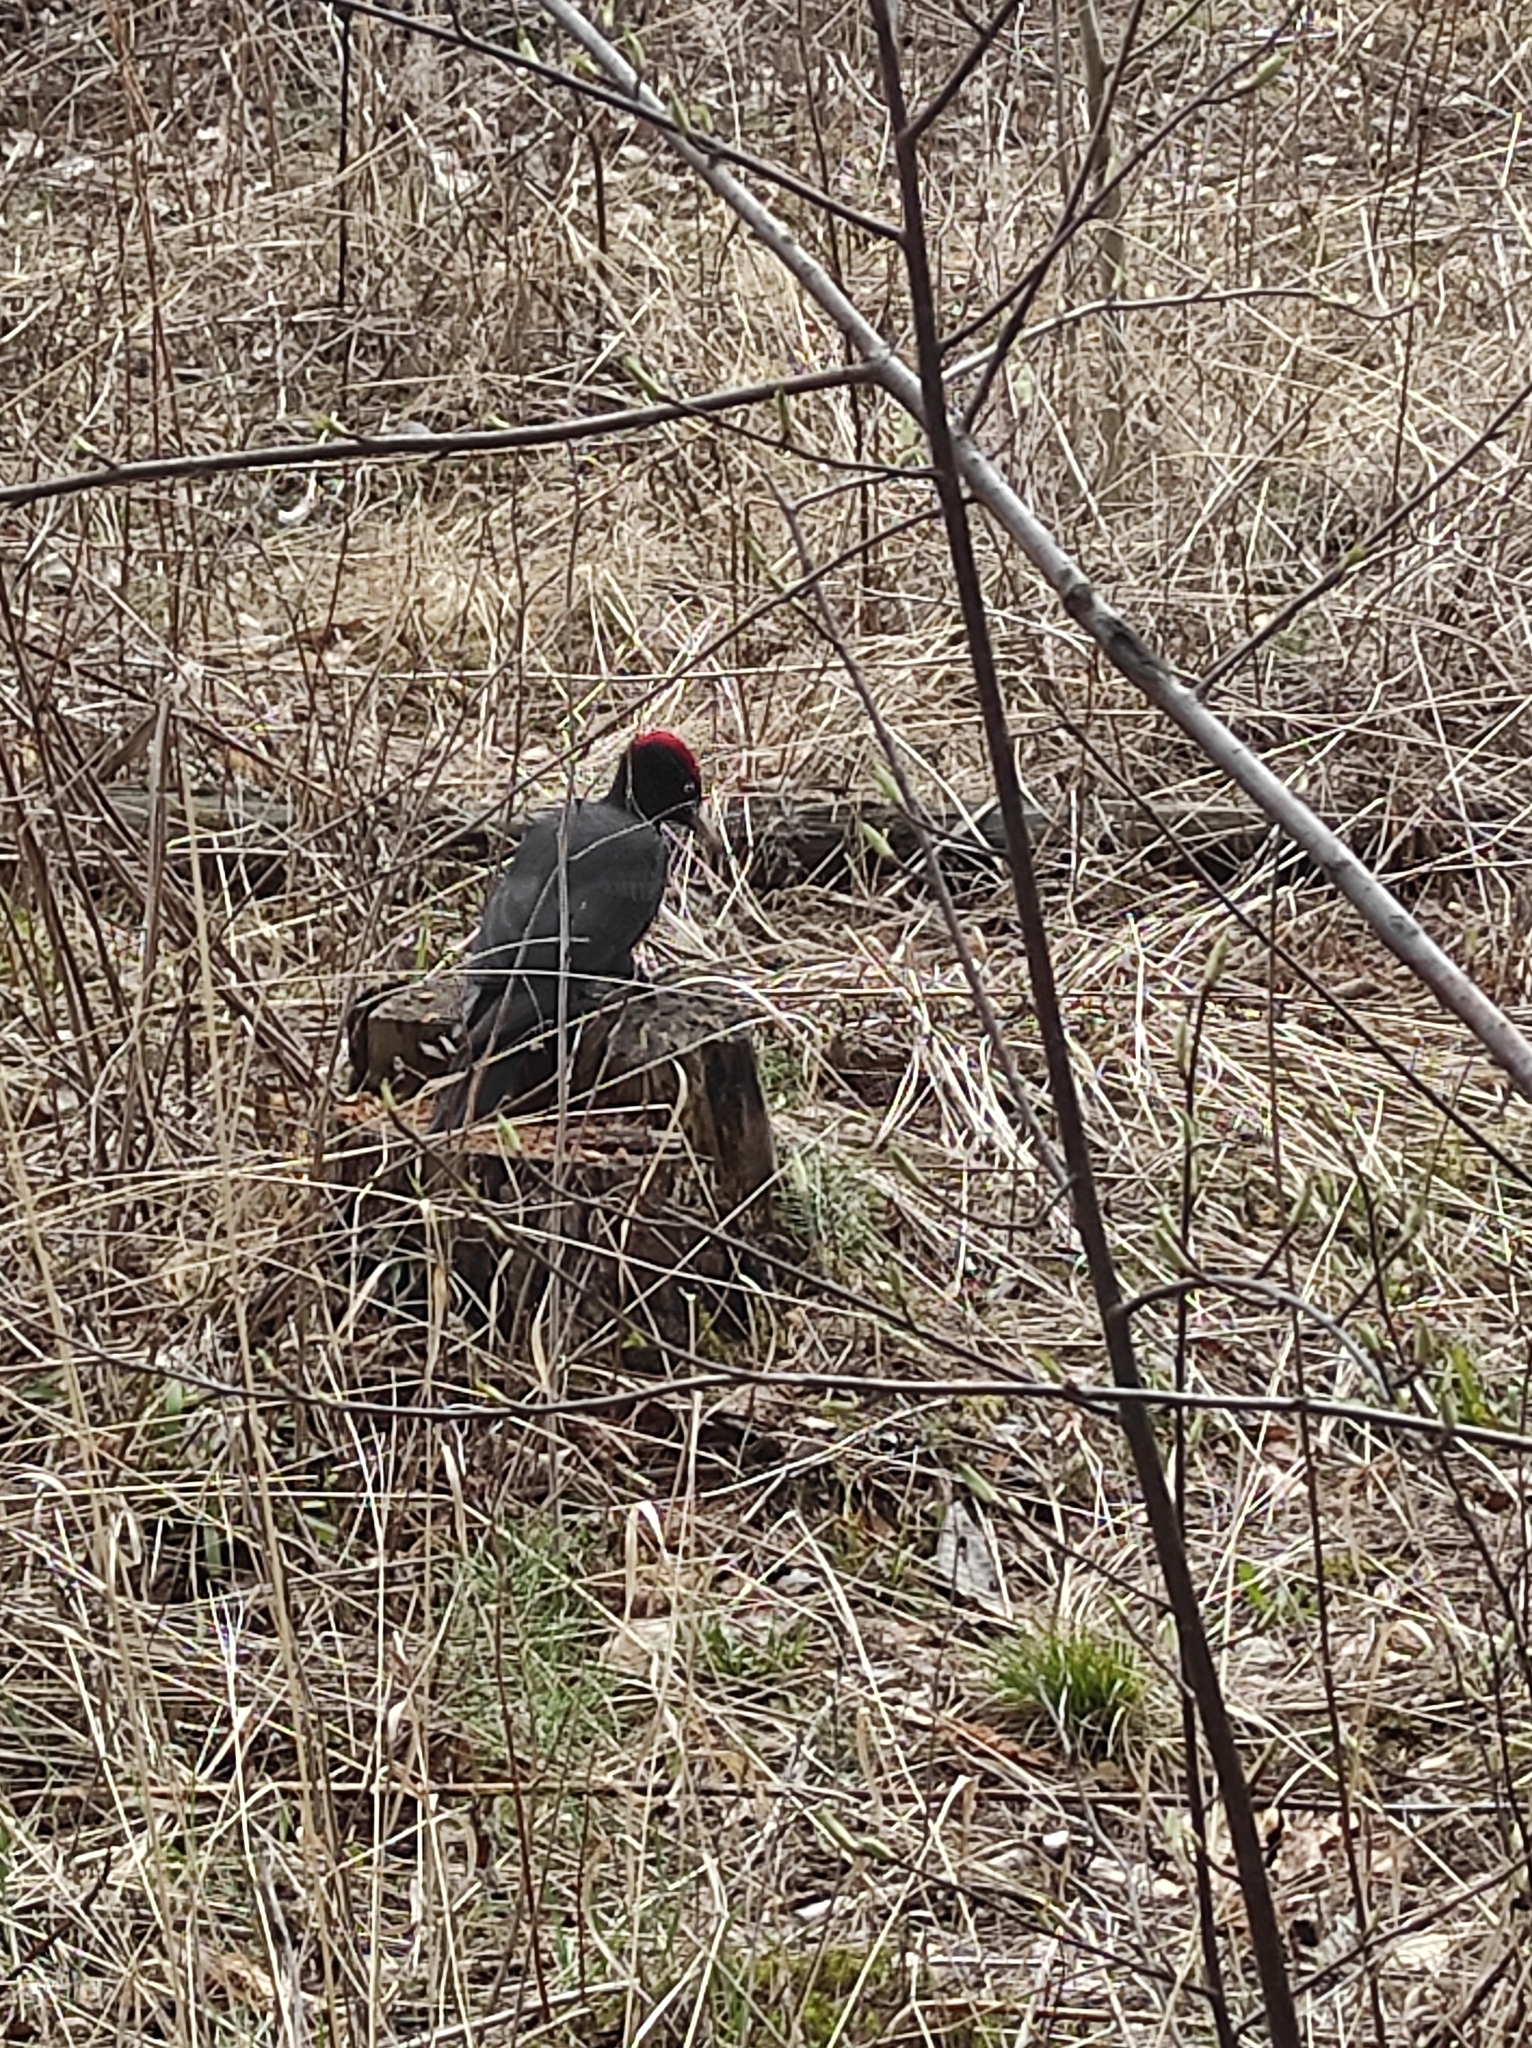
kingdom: Animalia
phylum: Chordata
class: Aves
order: Piciformes
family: Picidae
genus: Dryocopus
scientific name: Dryocopus martius
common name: Black woodpecker
